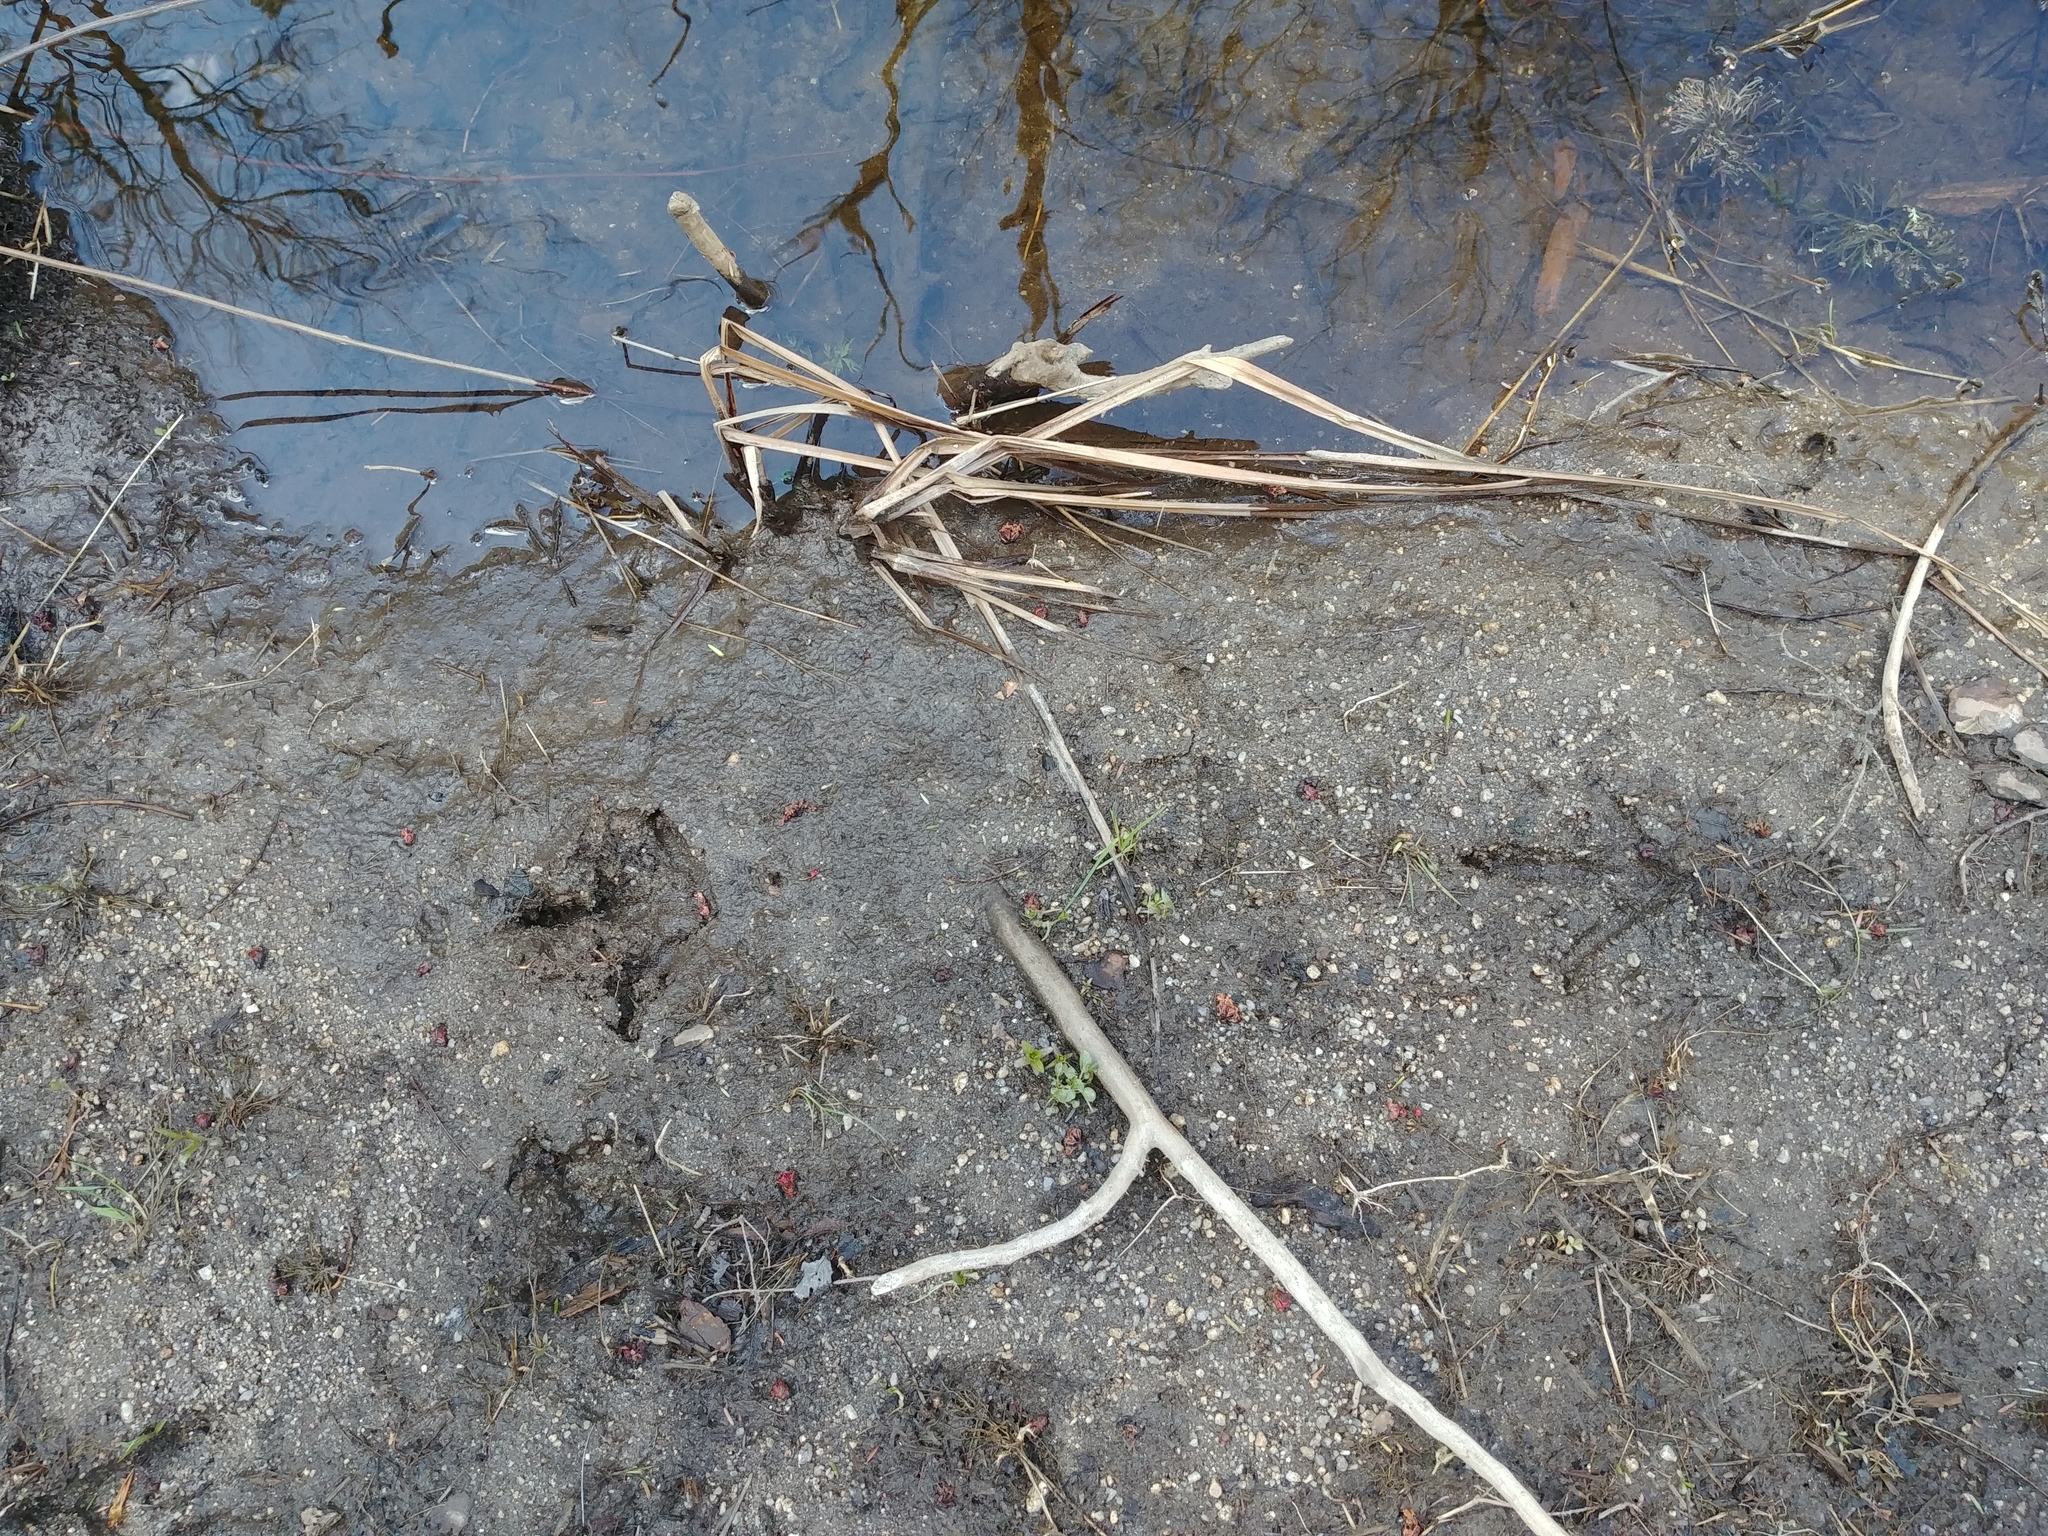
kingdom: Animalia
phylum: Chordata
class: Aves
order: Pelecaniformes
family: Ardeidae
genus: Ardea
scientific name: Ardea herodias
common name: Great blue heron
